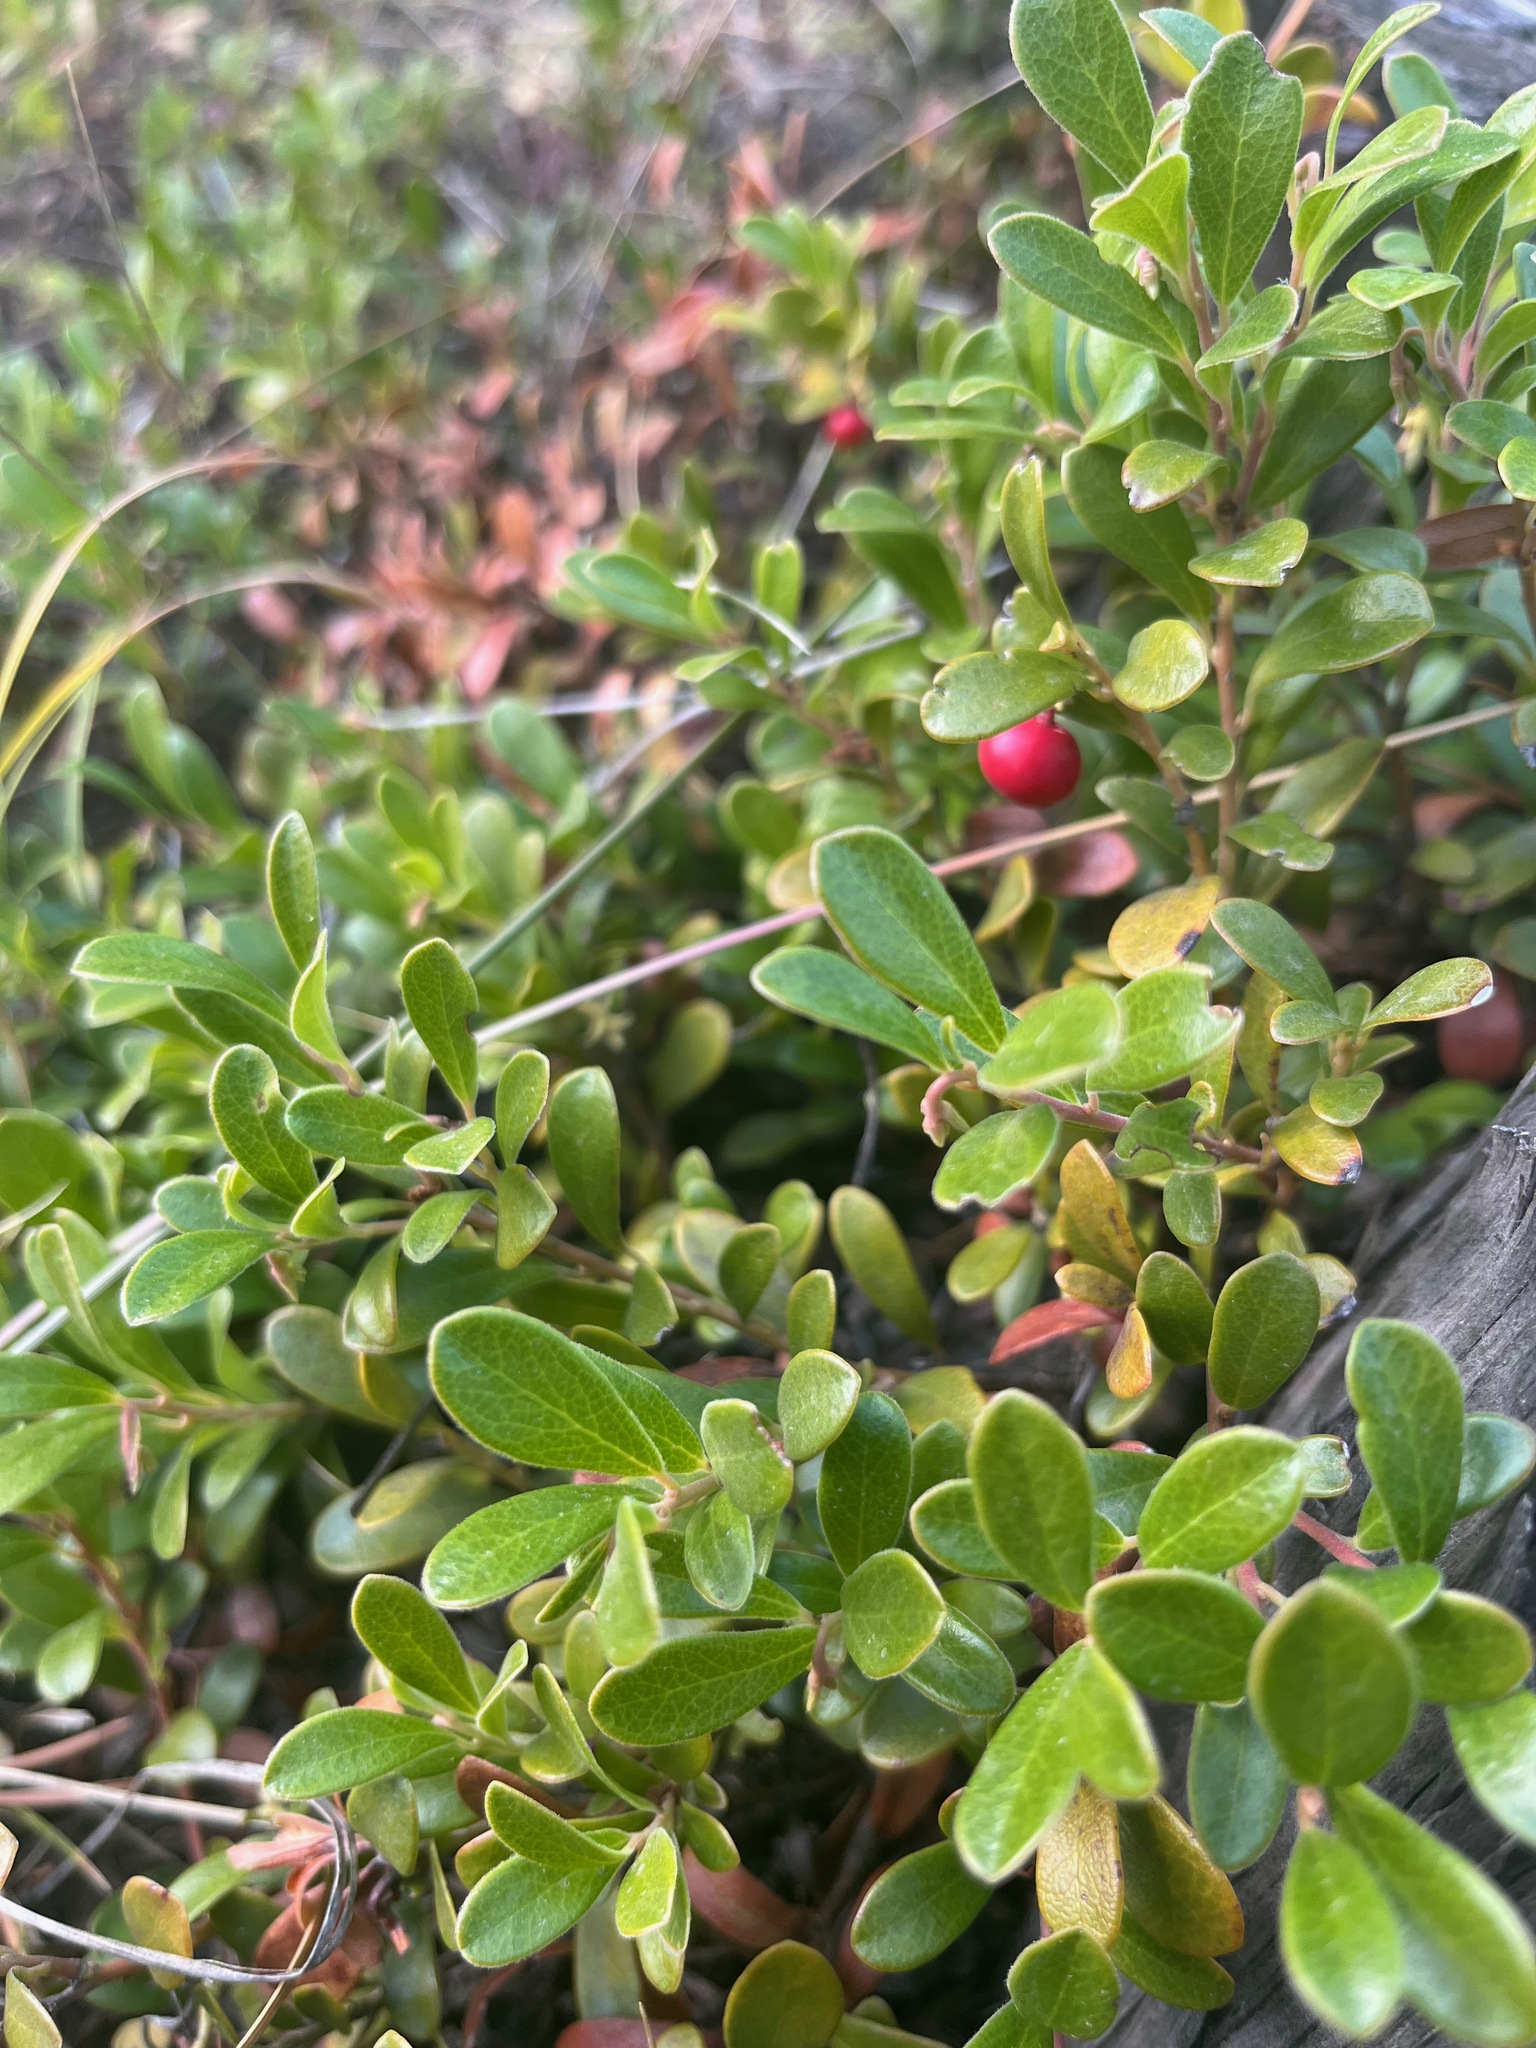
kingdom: Plantae
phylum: Tracheophyta
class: Magnoliopsida
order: Ericales
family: Ericaceae
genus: Arctostaphylos
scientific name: Arctostaphylos uva-ursi
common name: Bearberry
